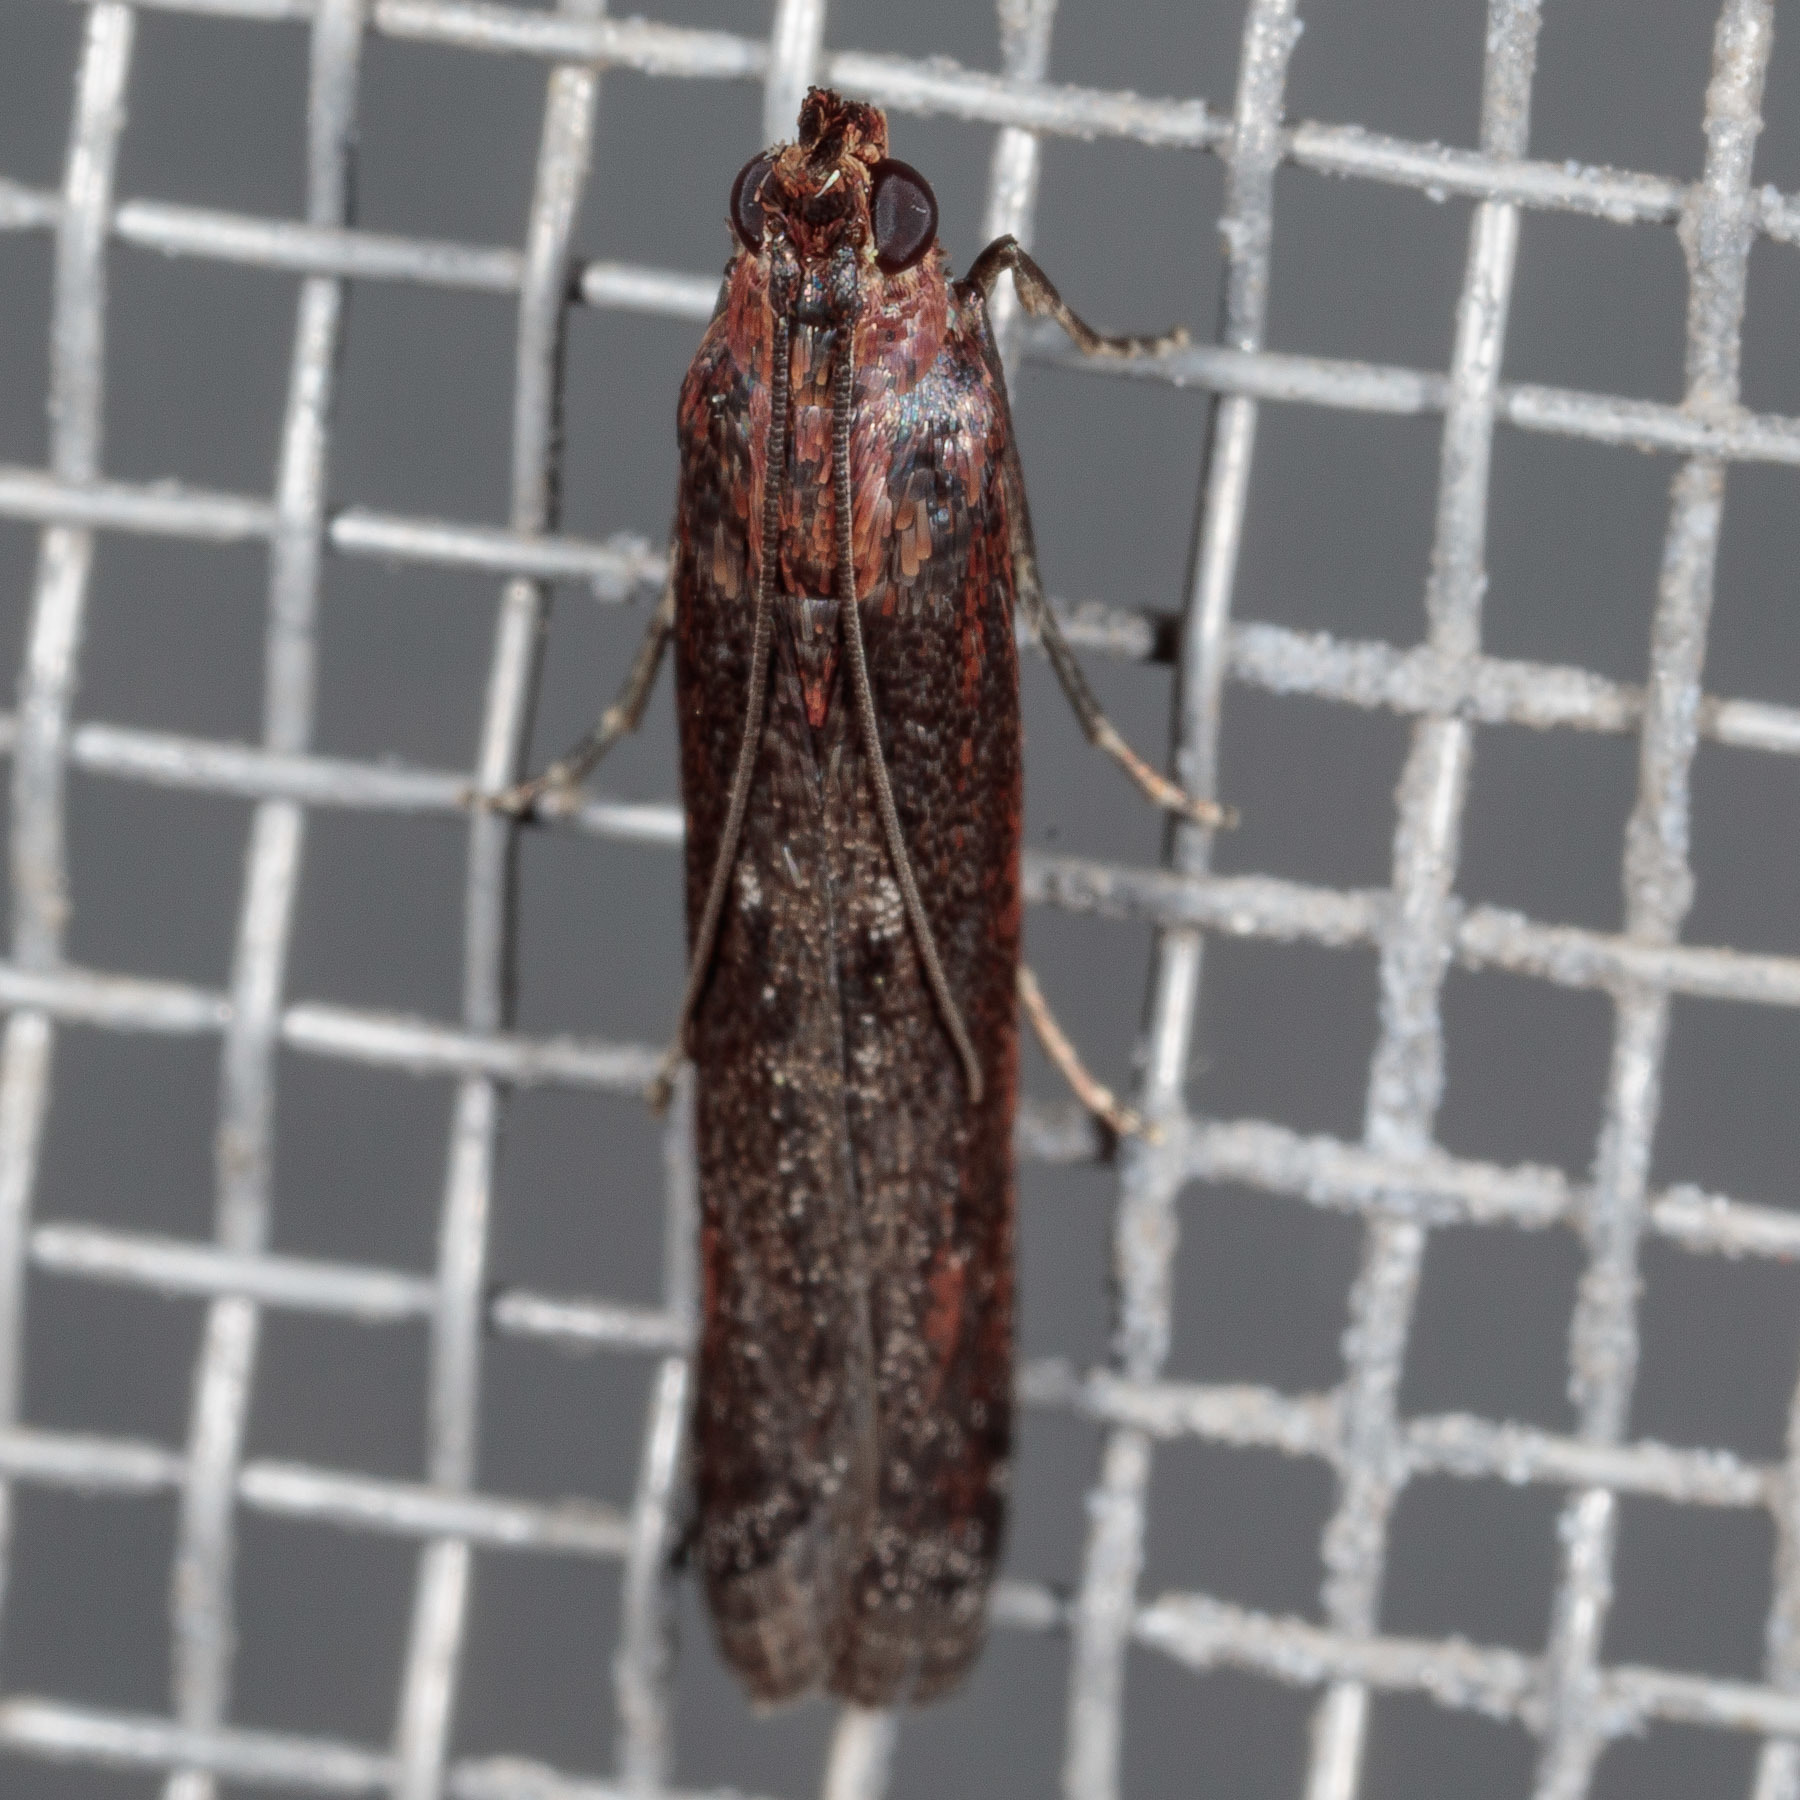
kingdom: Animalia
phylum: Arthropoda
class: Insecta
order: Lepidoptera
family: Pyralidae
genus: Elasmopalpus
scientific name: Elasmopalpus lignosella
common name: Lesser cornstalk borer
